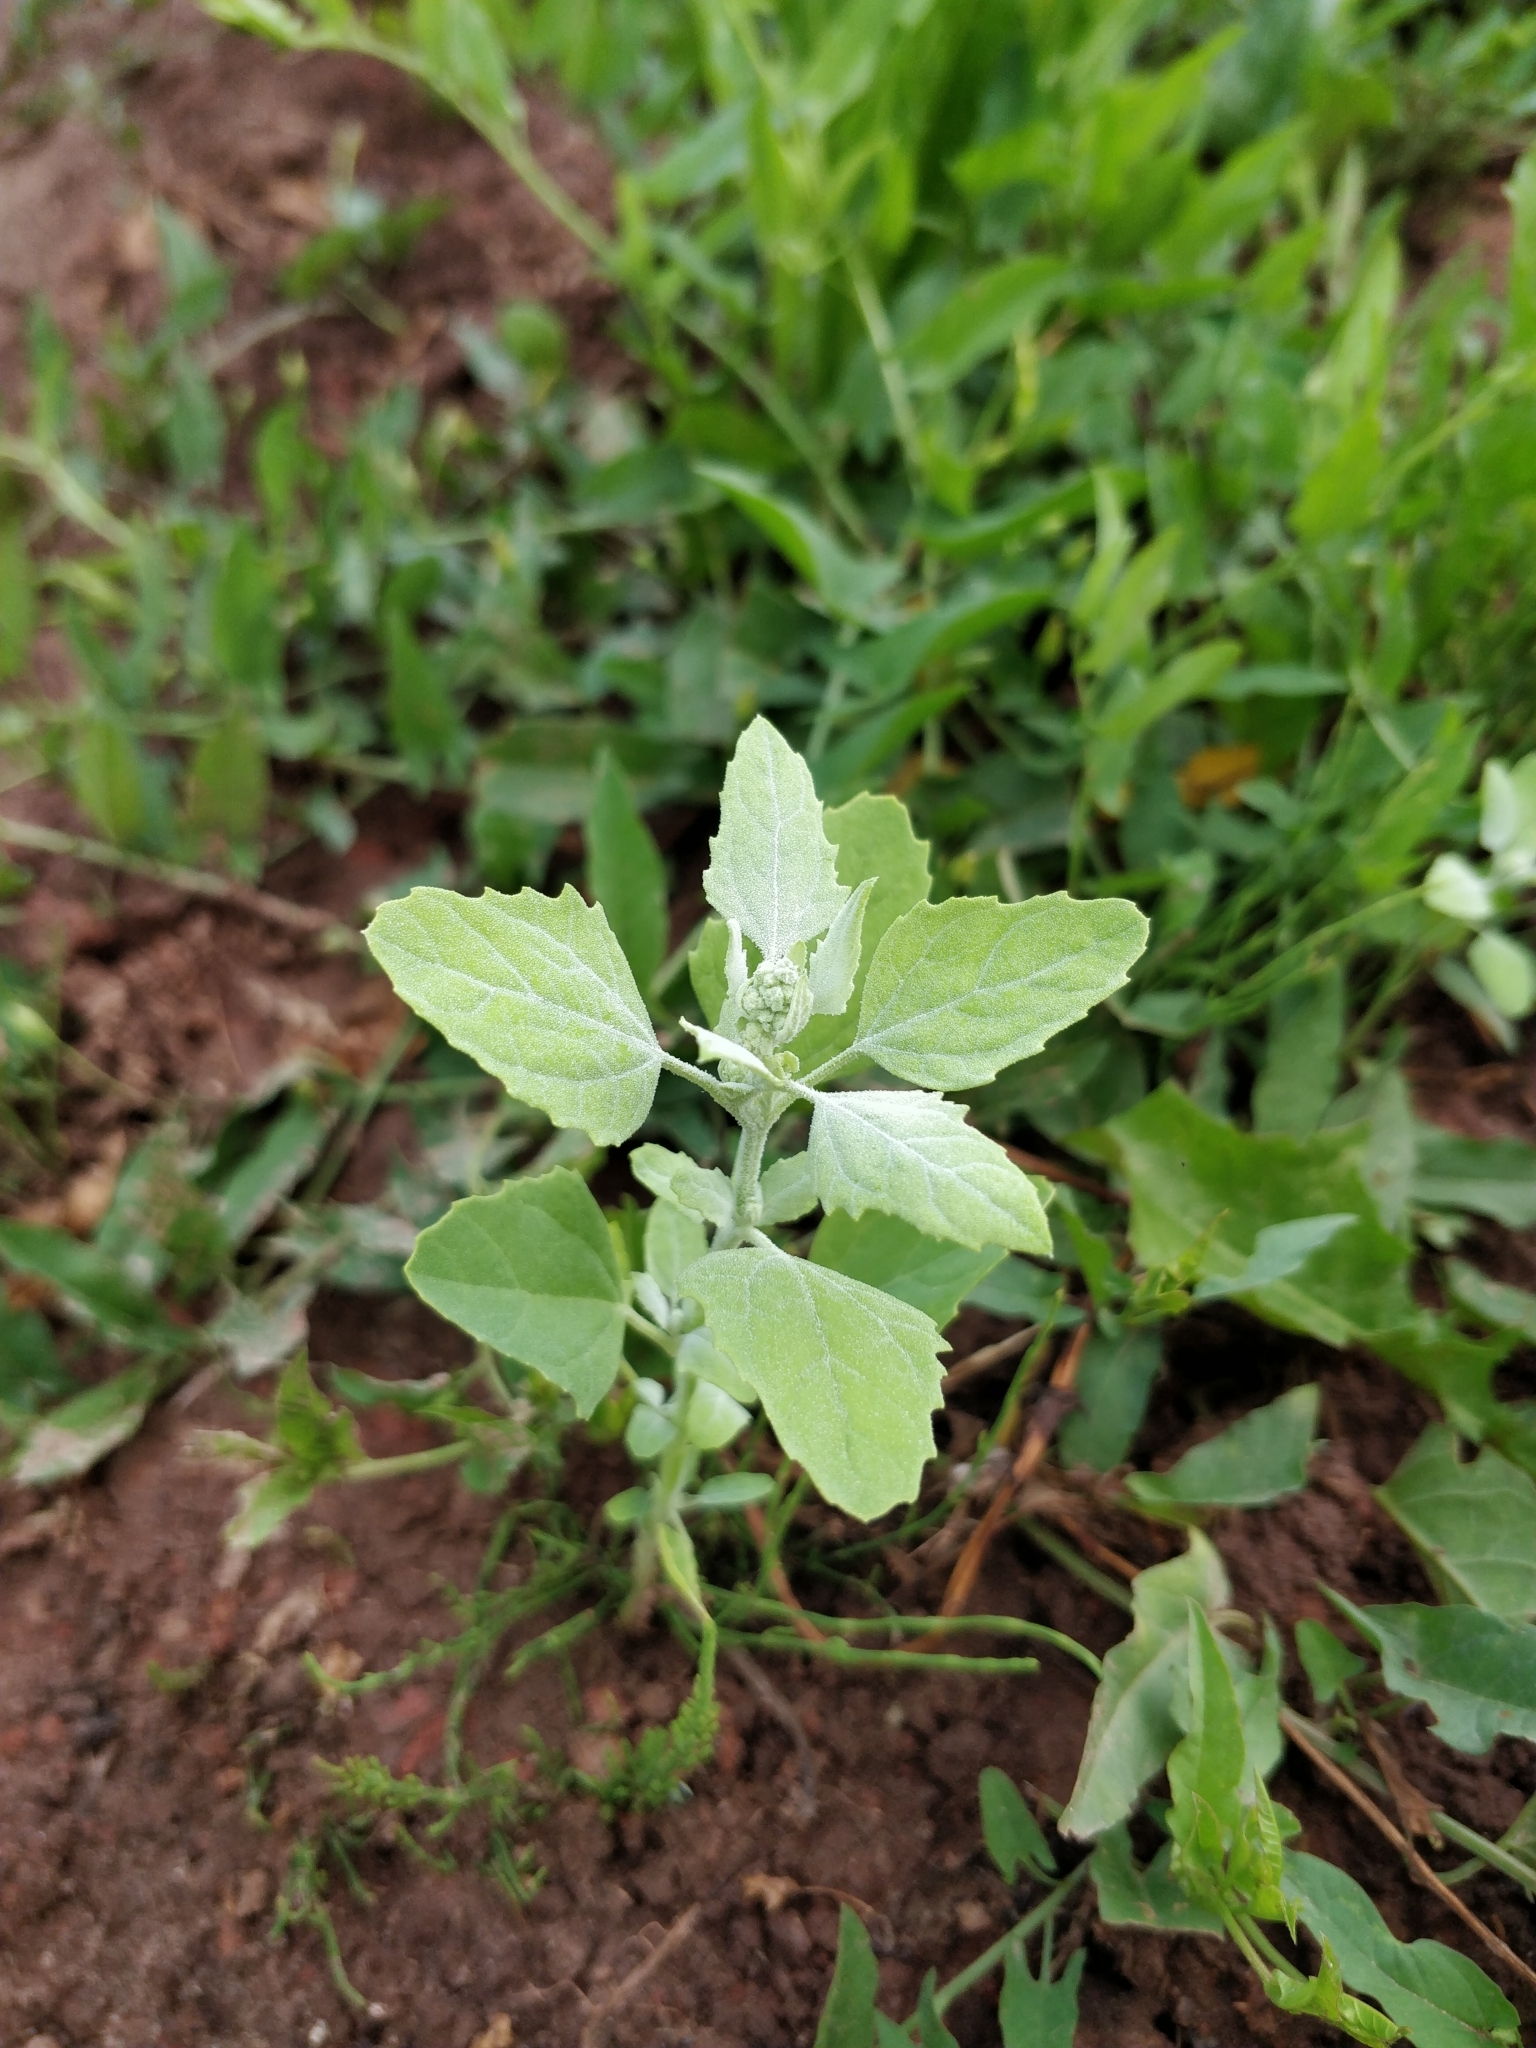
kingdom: Plantae
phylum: Tracheophyta
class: Magnoliopsida
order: Caryophyllales
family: Amaranthaceae
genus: Chenopodium
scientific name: Chenopodium album
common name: Fat-hen
